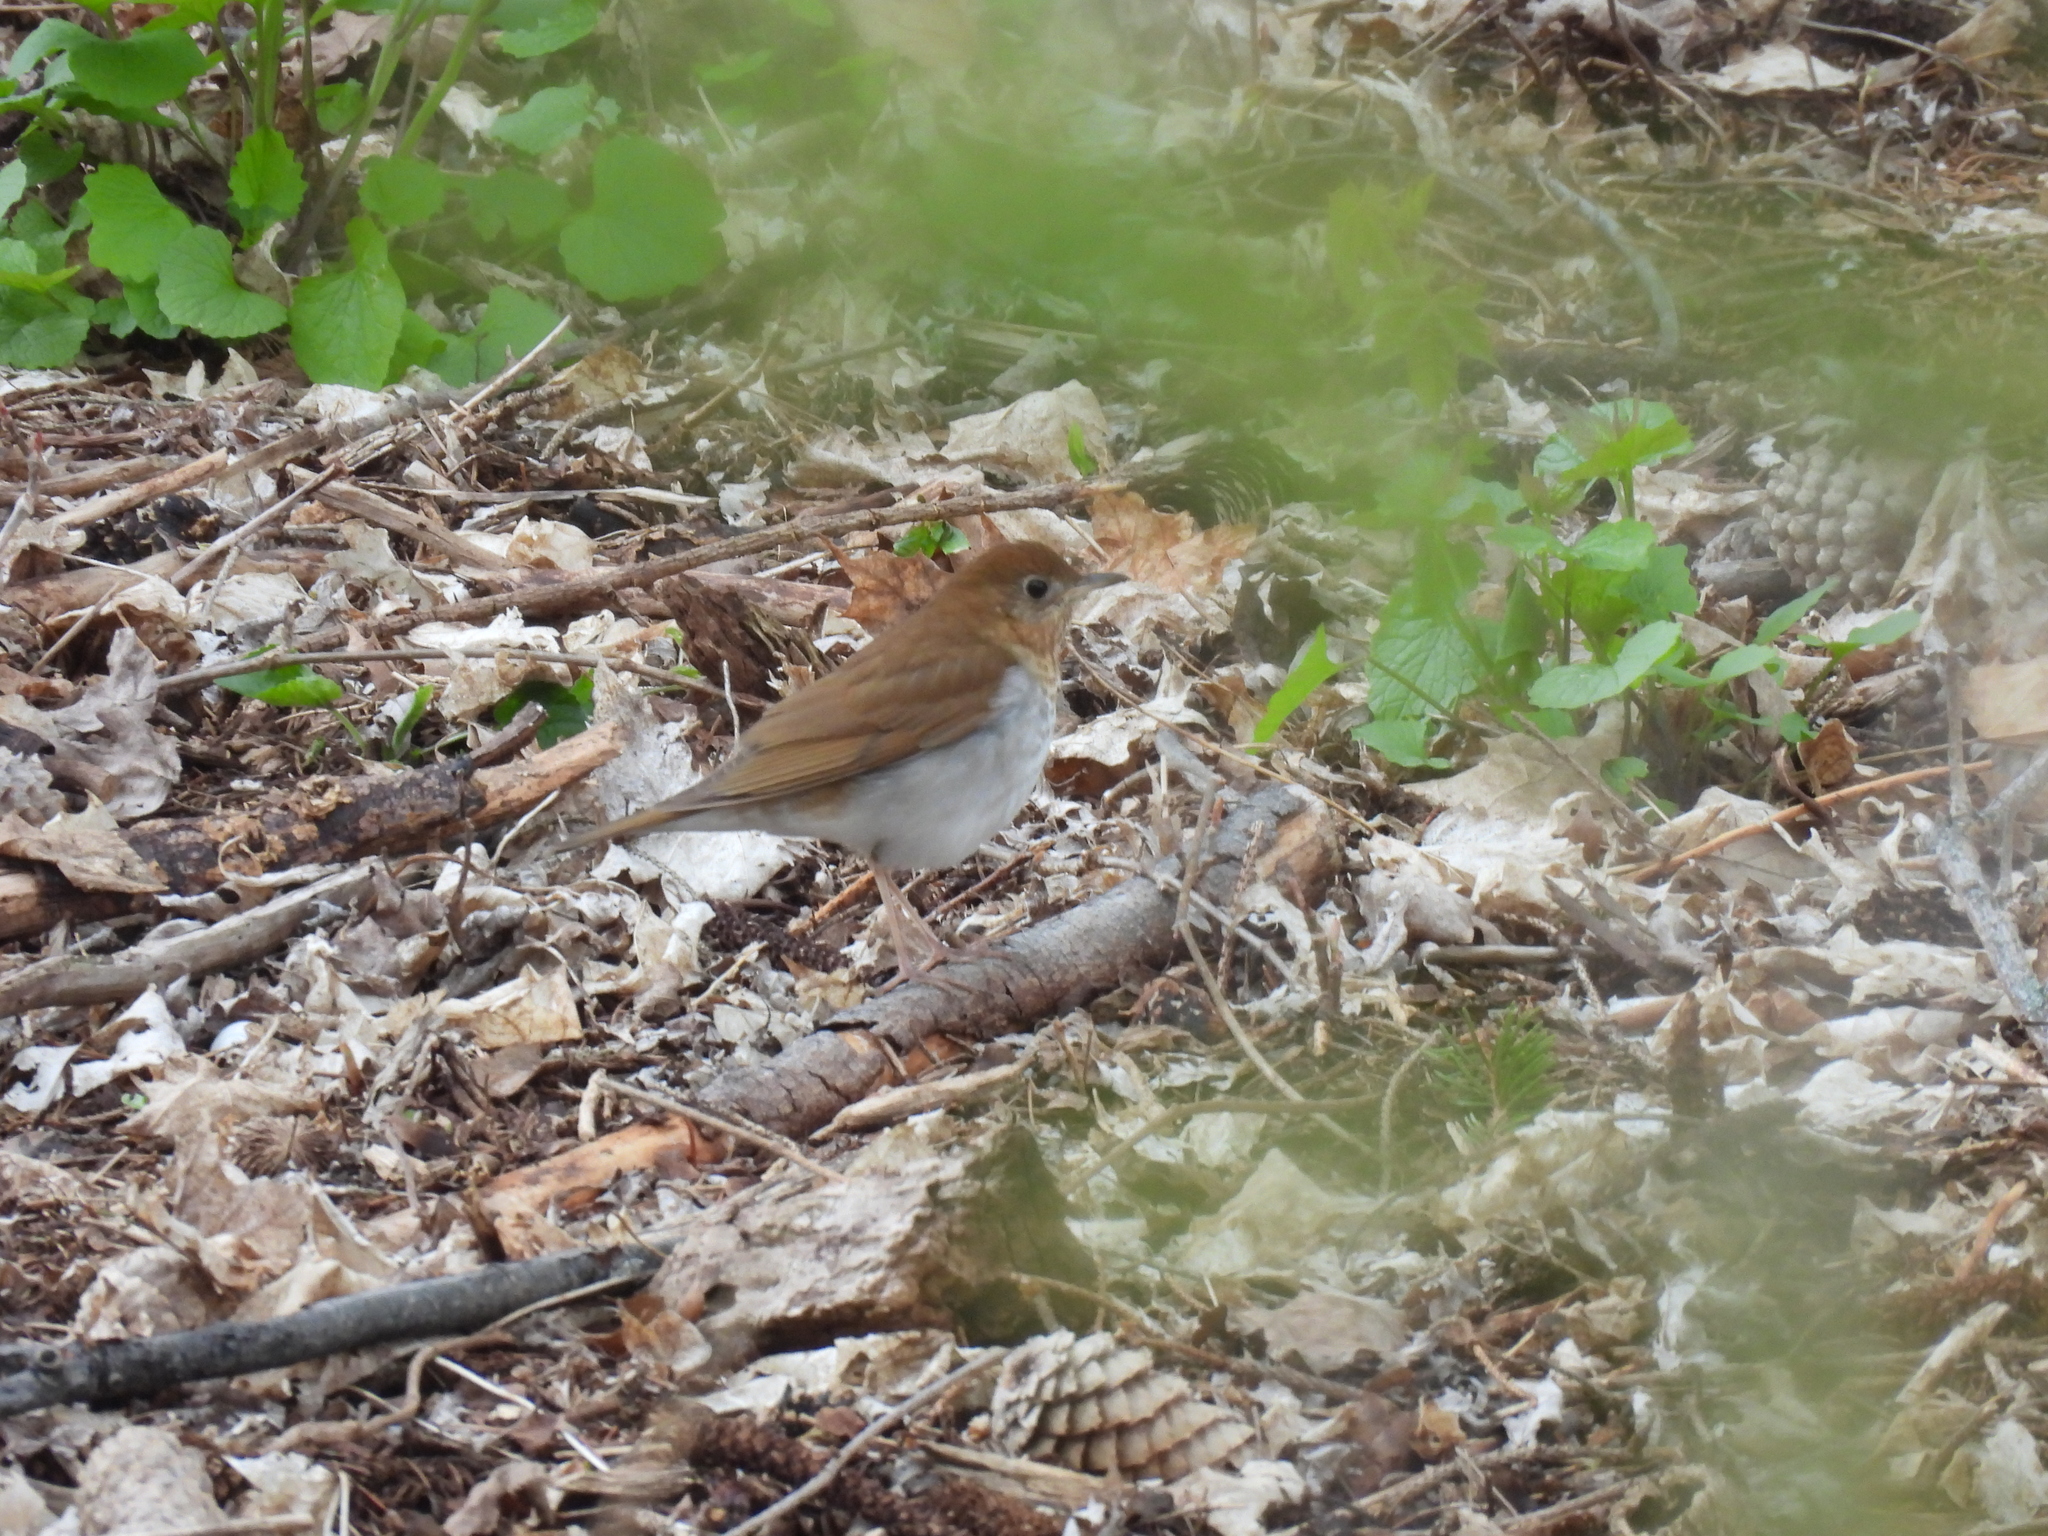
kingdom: Animalia
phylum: Chordata
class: Aves
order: Passeriformes
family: Turdidae
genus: Catharus
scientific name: Catharus fuscescens
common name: Veery
